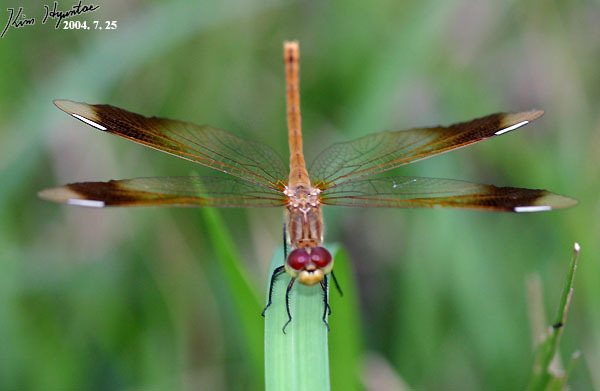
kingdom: Animalia
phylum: Arthropoda
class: Insecta
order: Odonata
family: Libellulidae
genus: Sympetrum
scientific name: Sympetrum pedemontanum
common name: Banded darter
